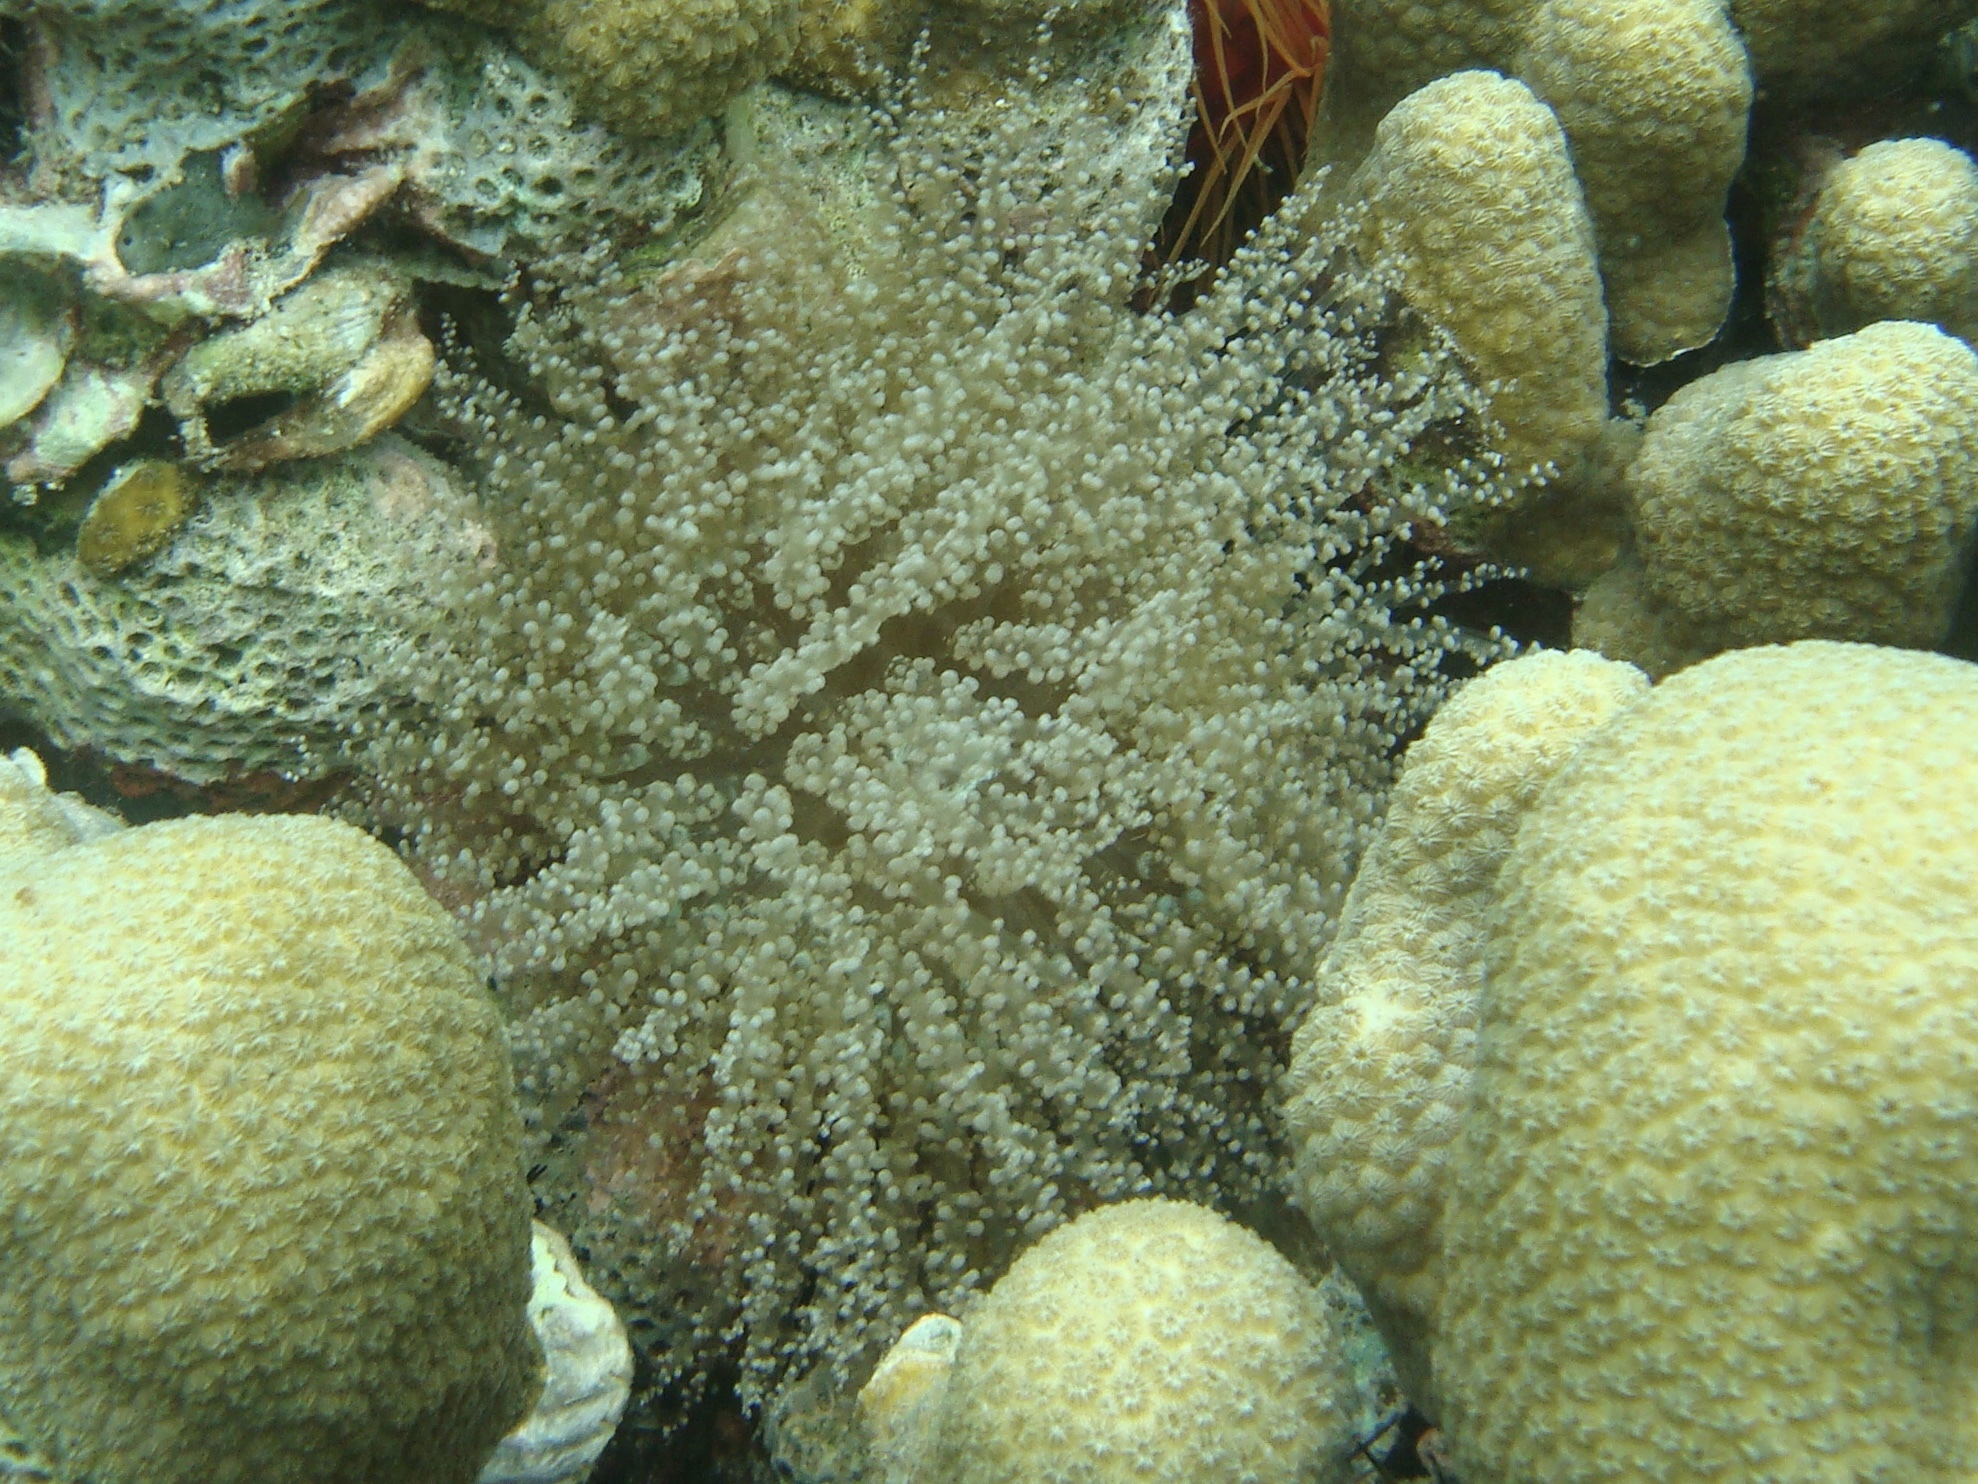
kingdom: Animalia
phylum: Cnidaria
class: Anthozoa
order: Actiniaria
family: Aiptasiidae
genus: Laviactis
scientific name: Laviactis lucida
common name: Atlantic beaded anemone
